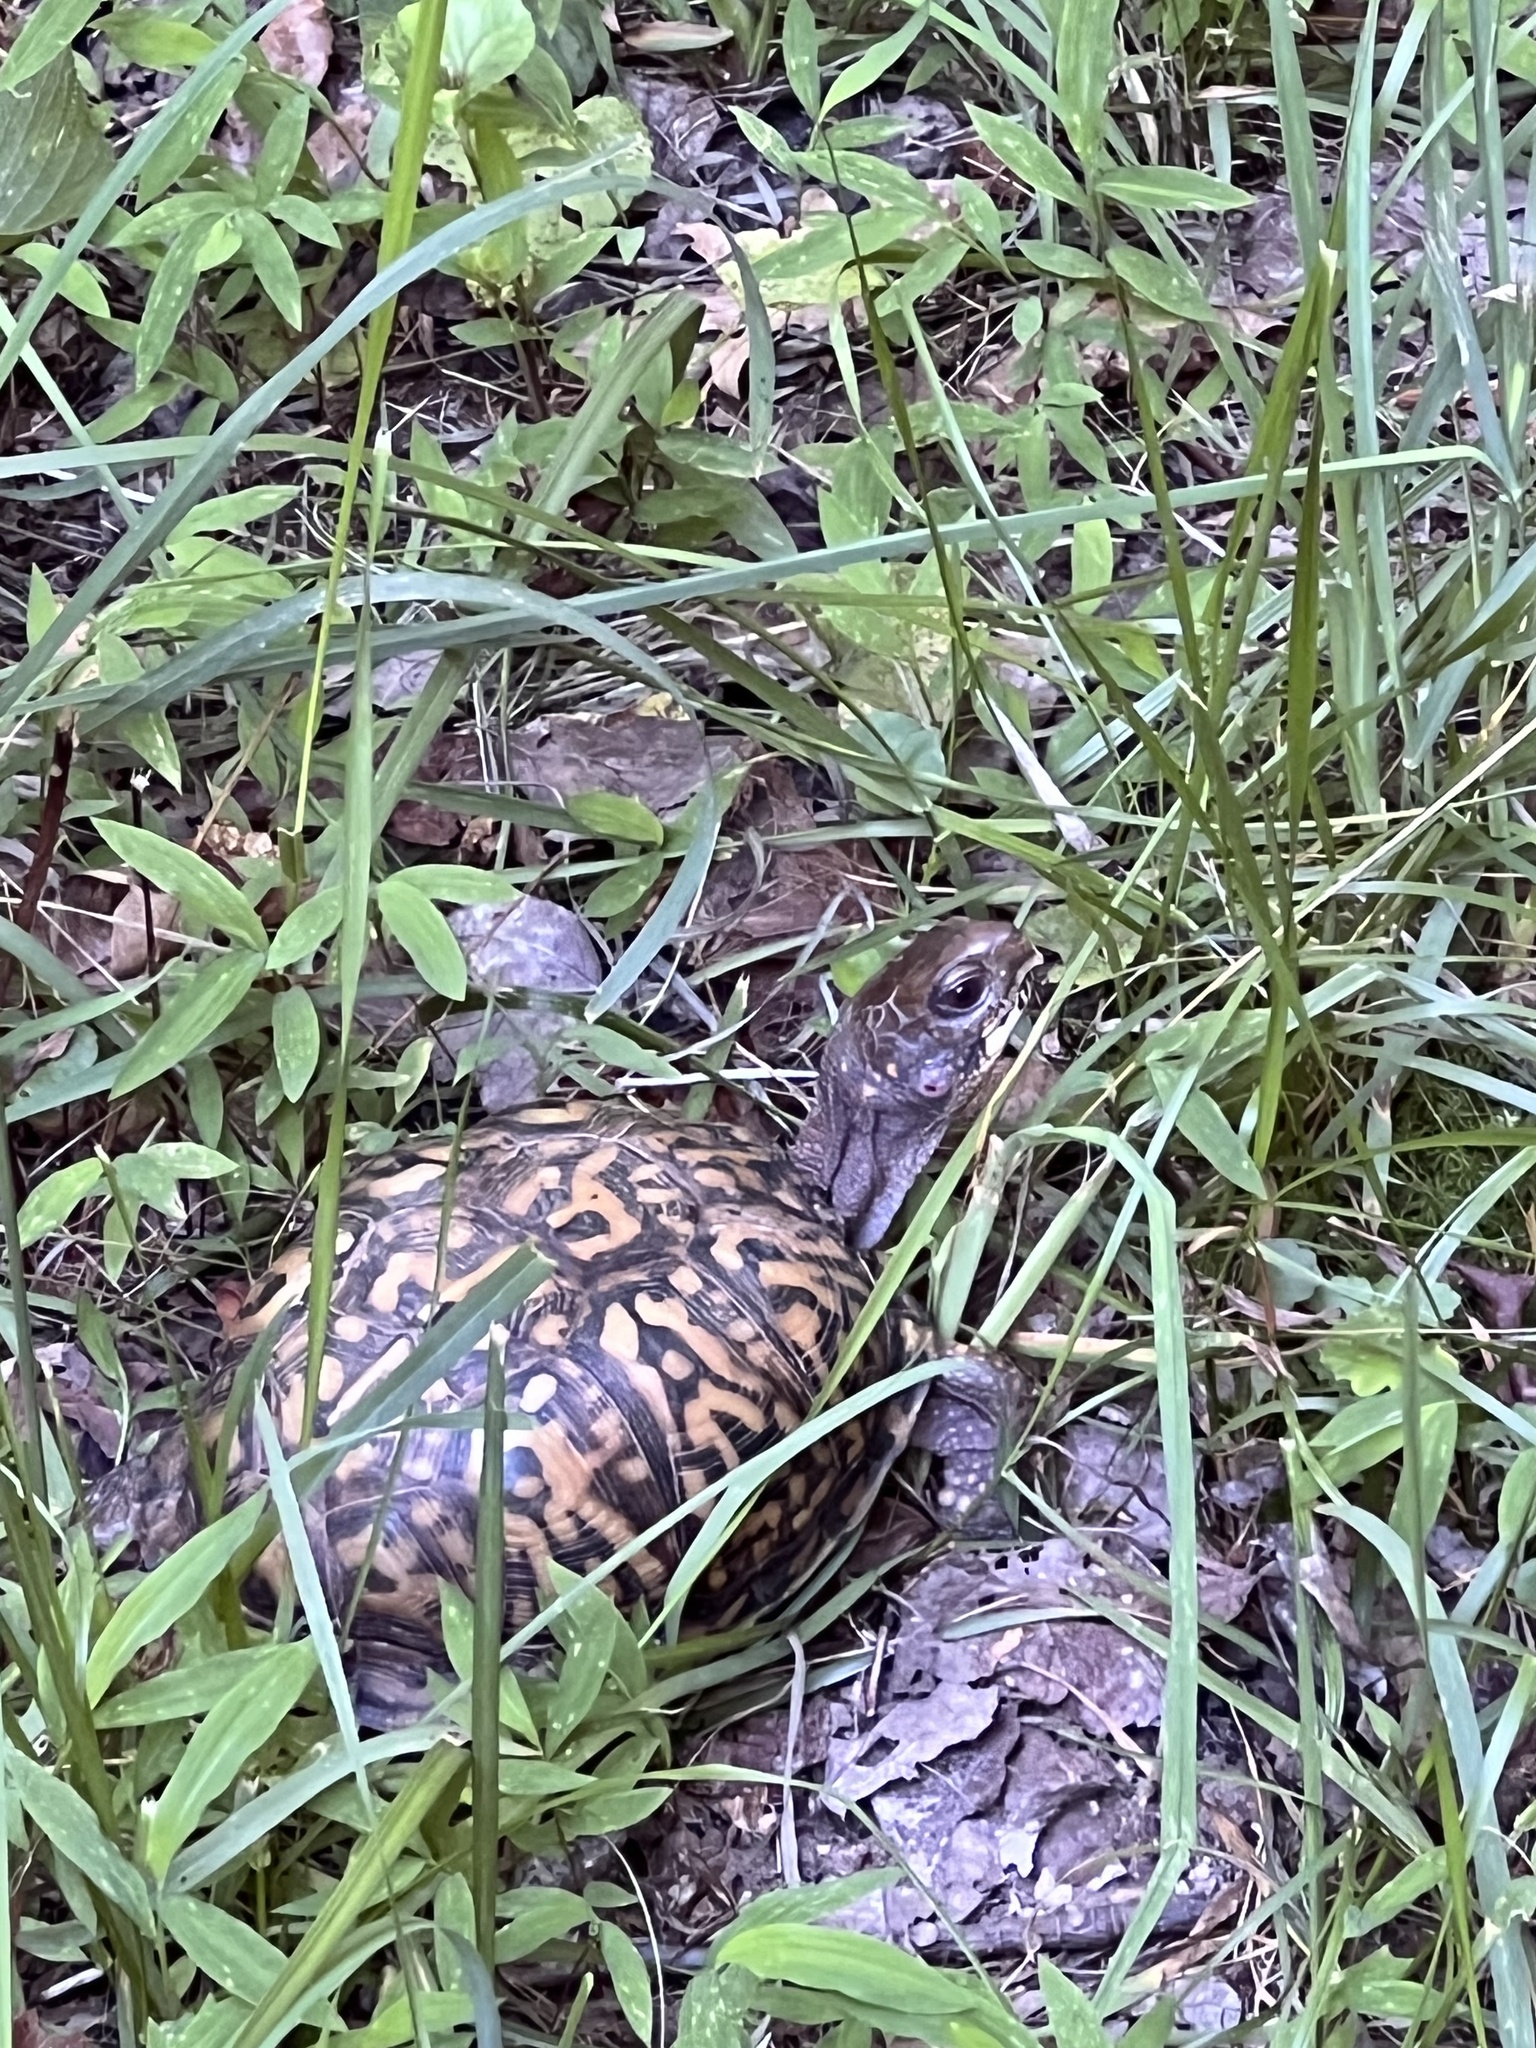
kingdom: Animalia
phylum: Chordata
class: Testudines
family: Emydidae
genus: Terrapene
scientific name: Terrapene carolina
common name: Common box turtle
